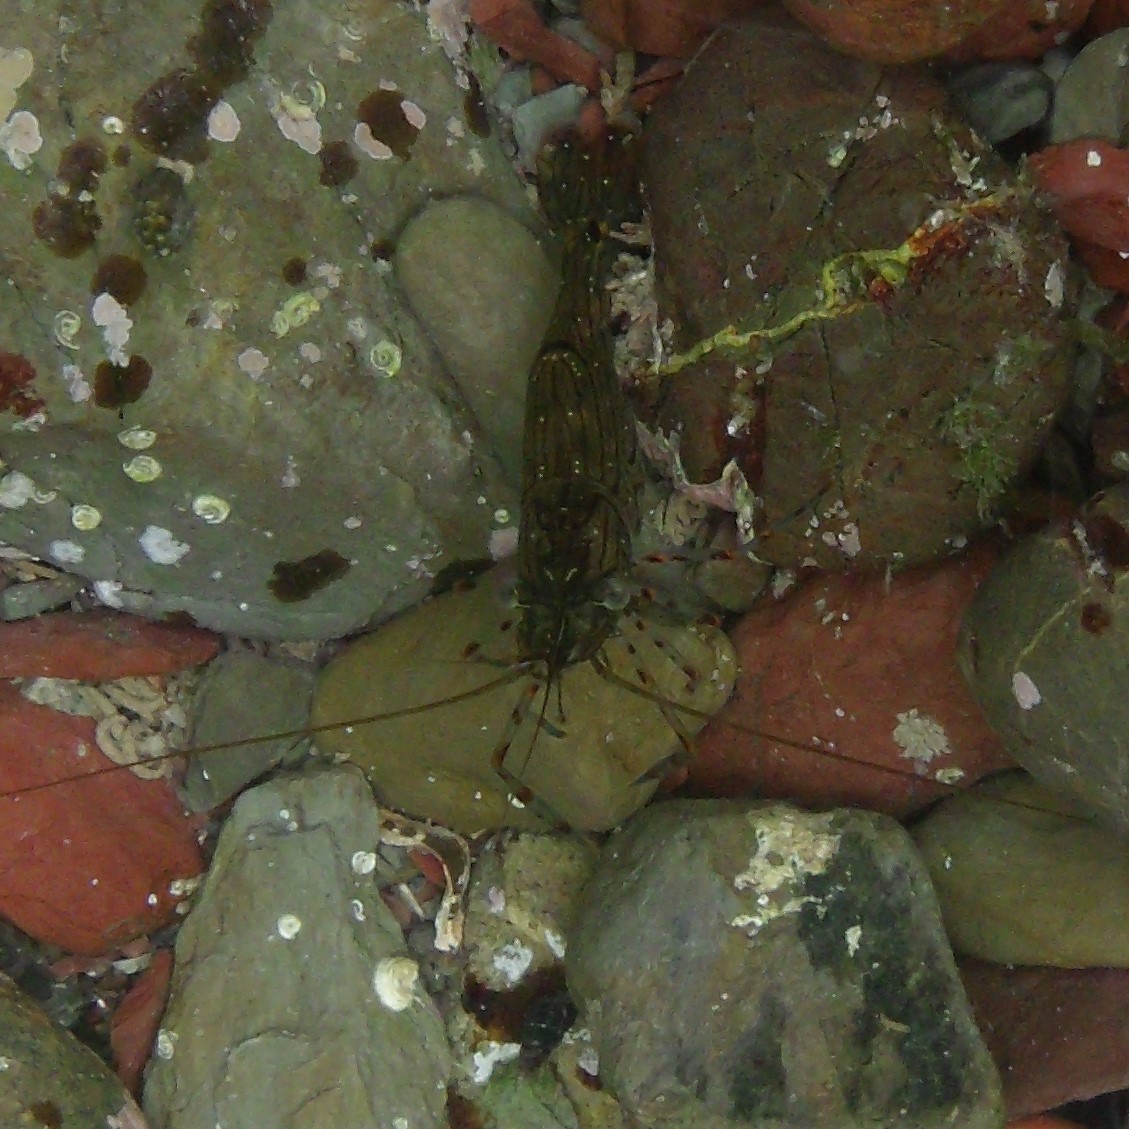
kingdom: Animalia
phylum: Arthropoda
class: Malacostraca
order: Decapoda
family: Palaemonidae
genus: Palaemon
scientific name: Palaemon affinis
